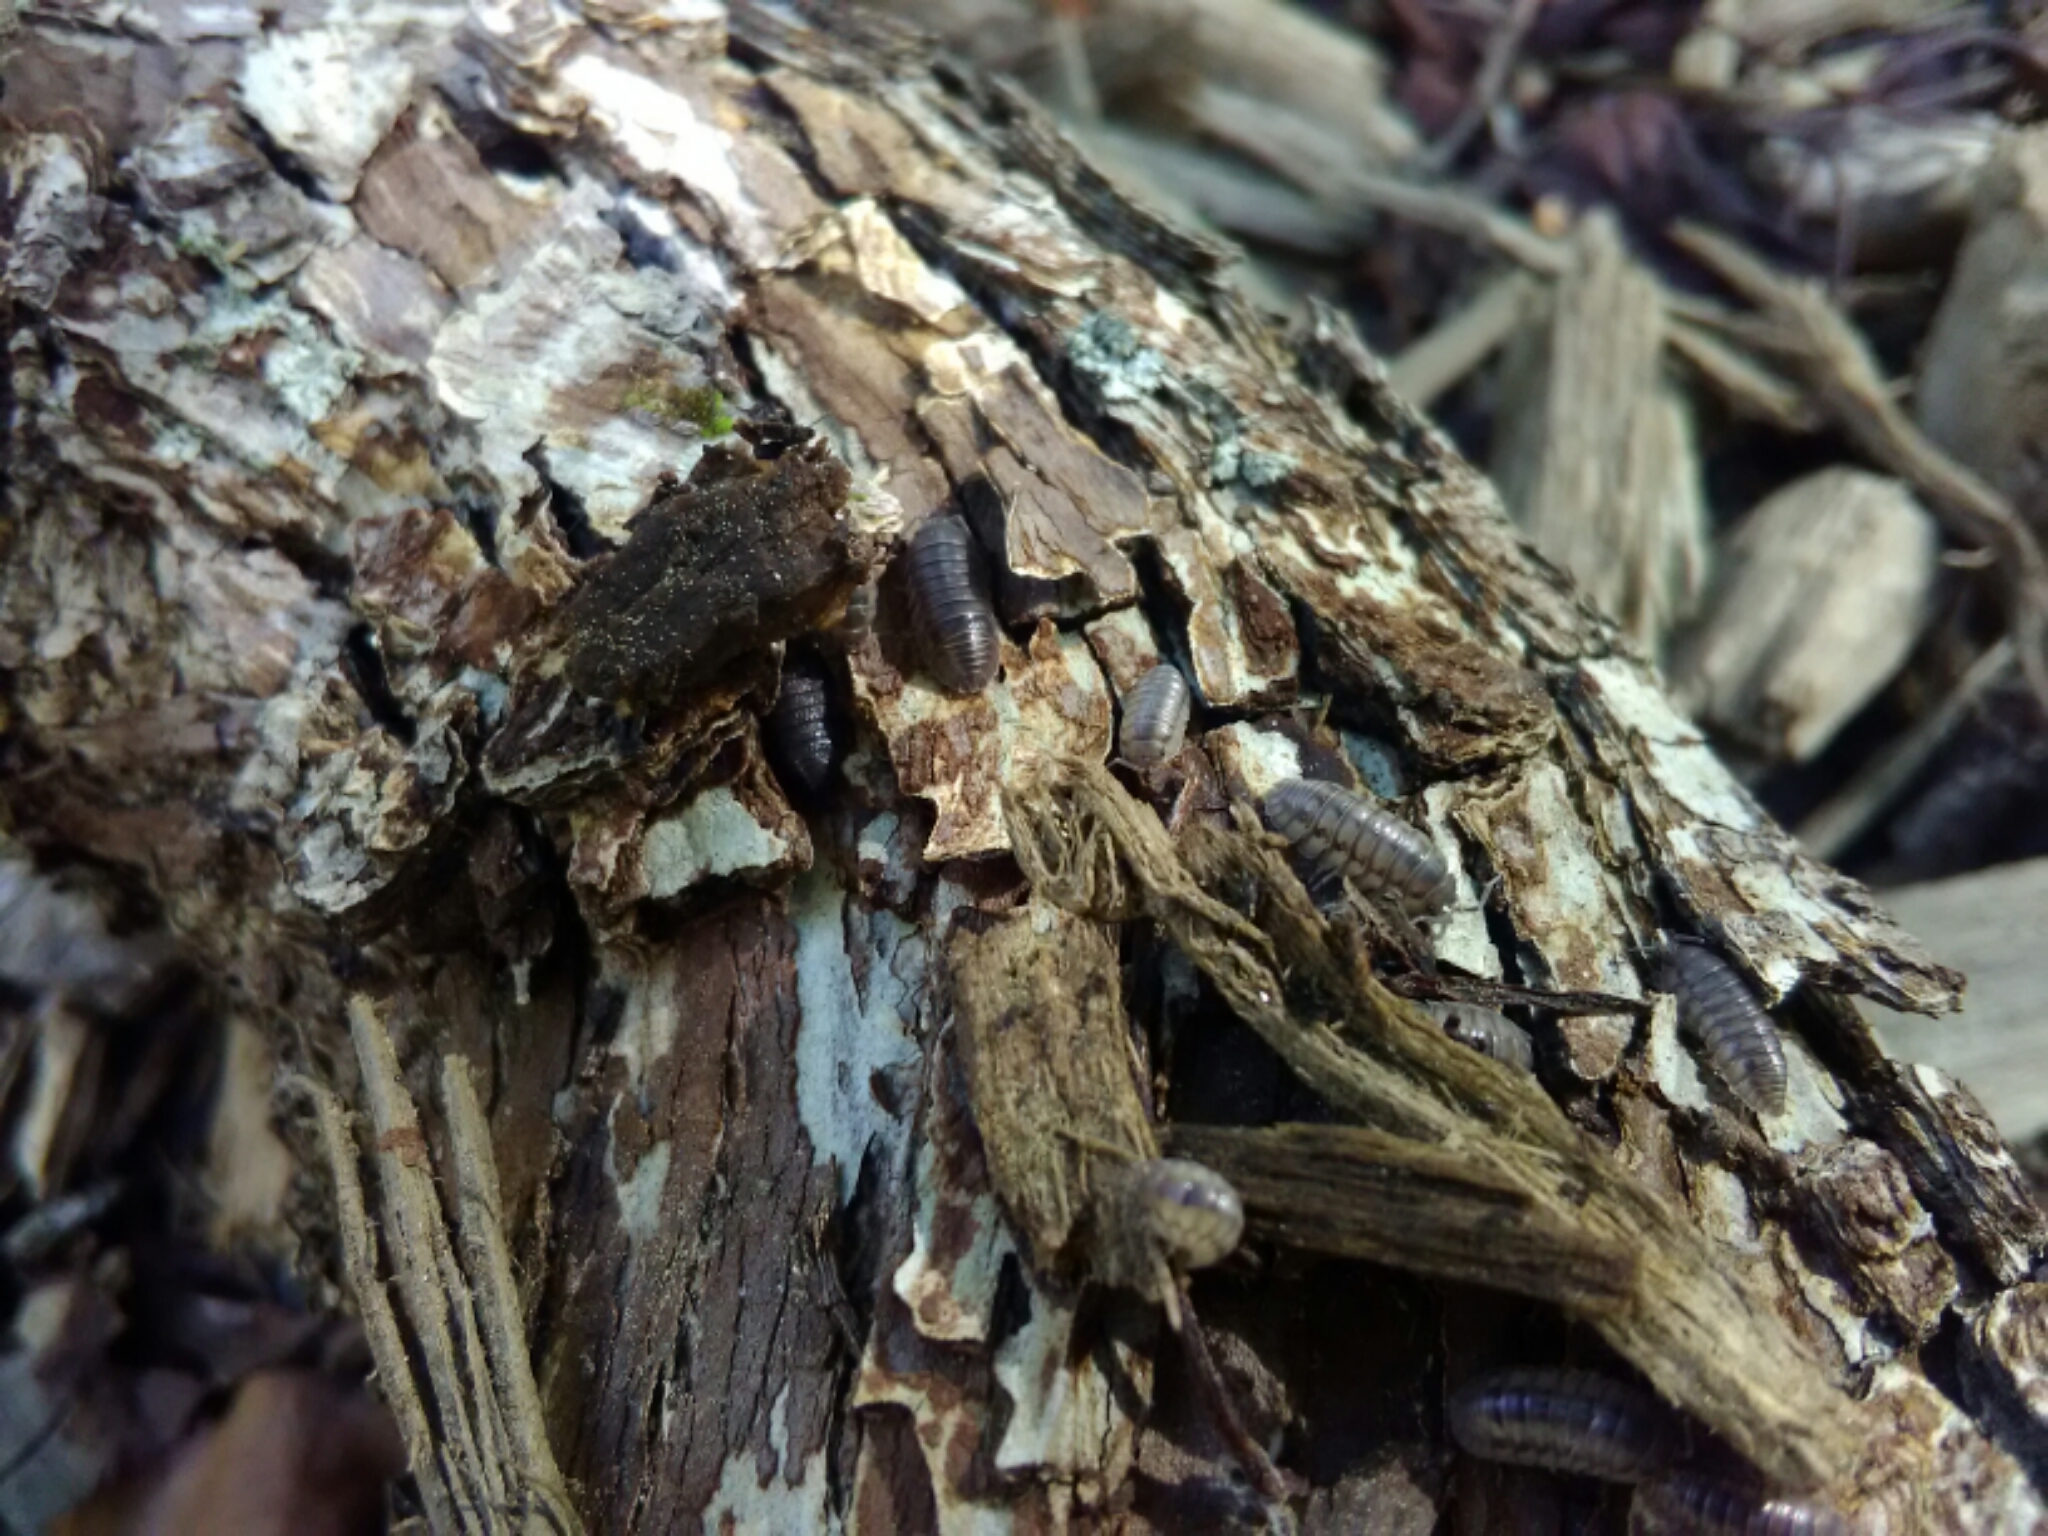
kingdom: Animalia
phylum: Arthropoda
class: Malacostraca
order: Isopoda
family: Armadillidiidae
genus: Armadillidium
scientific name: Armadillidium nasatum
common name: Isopod
